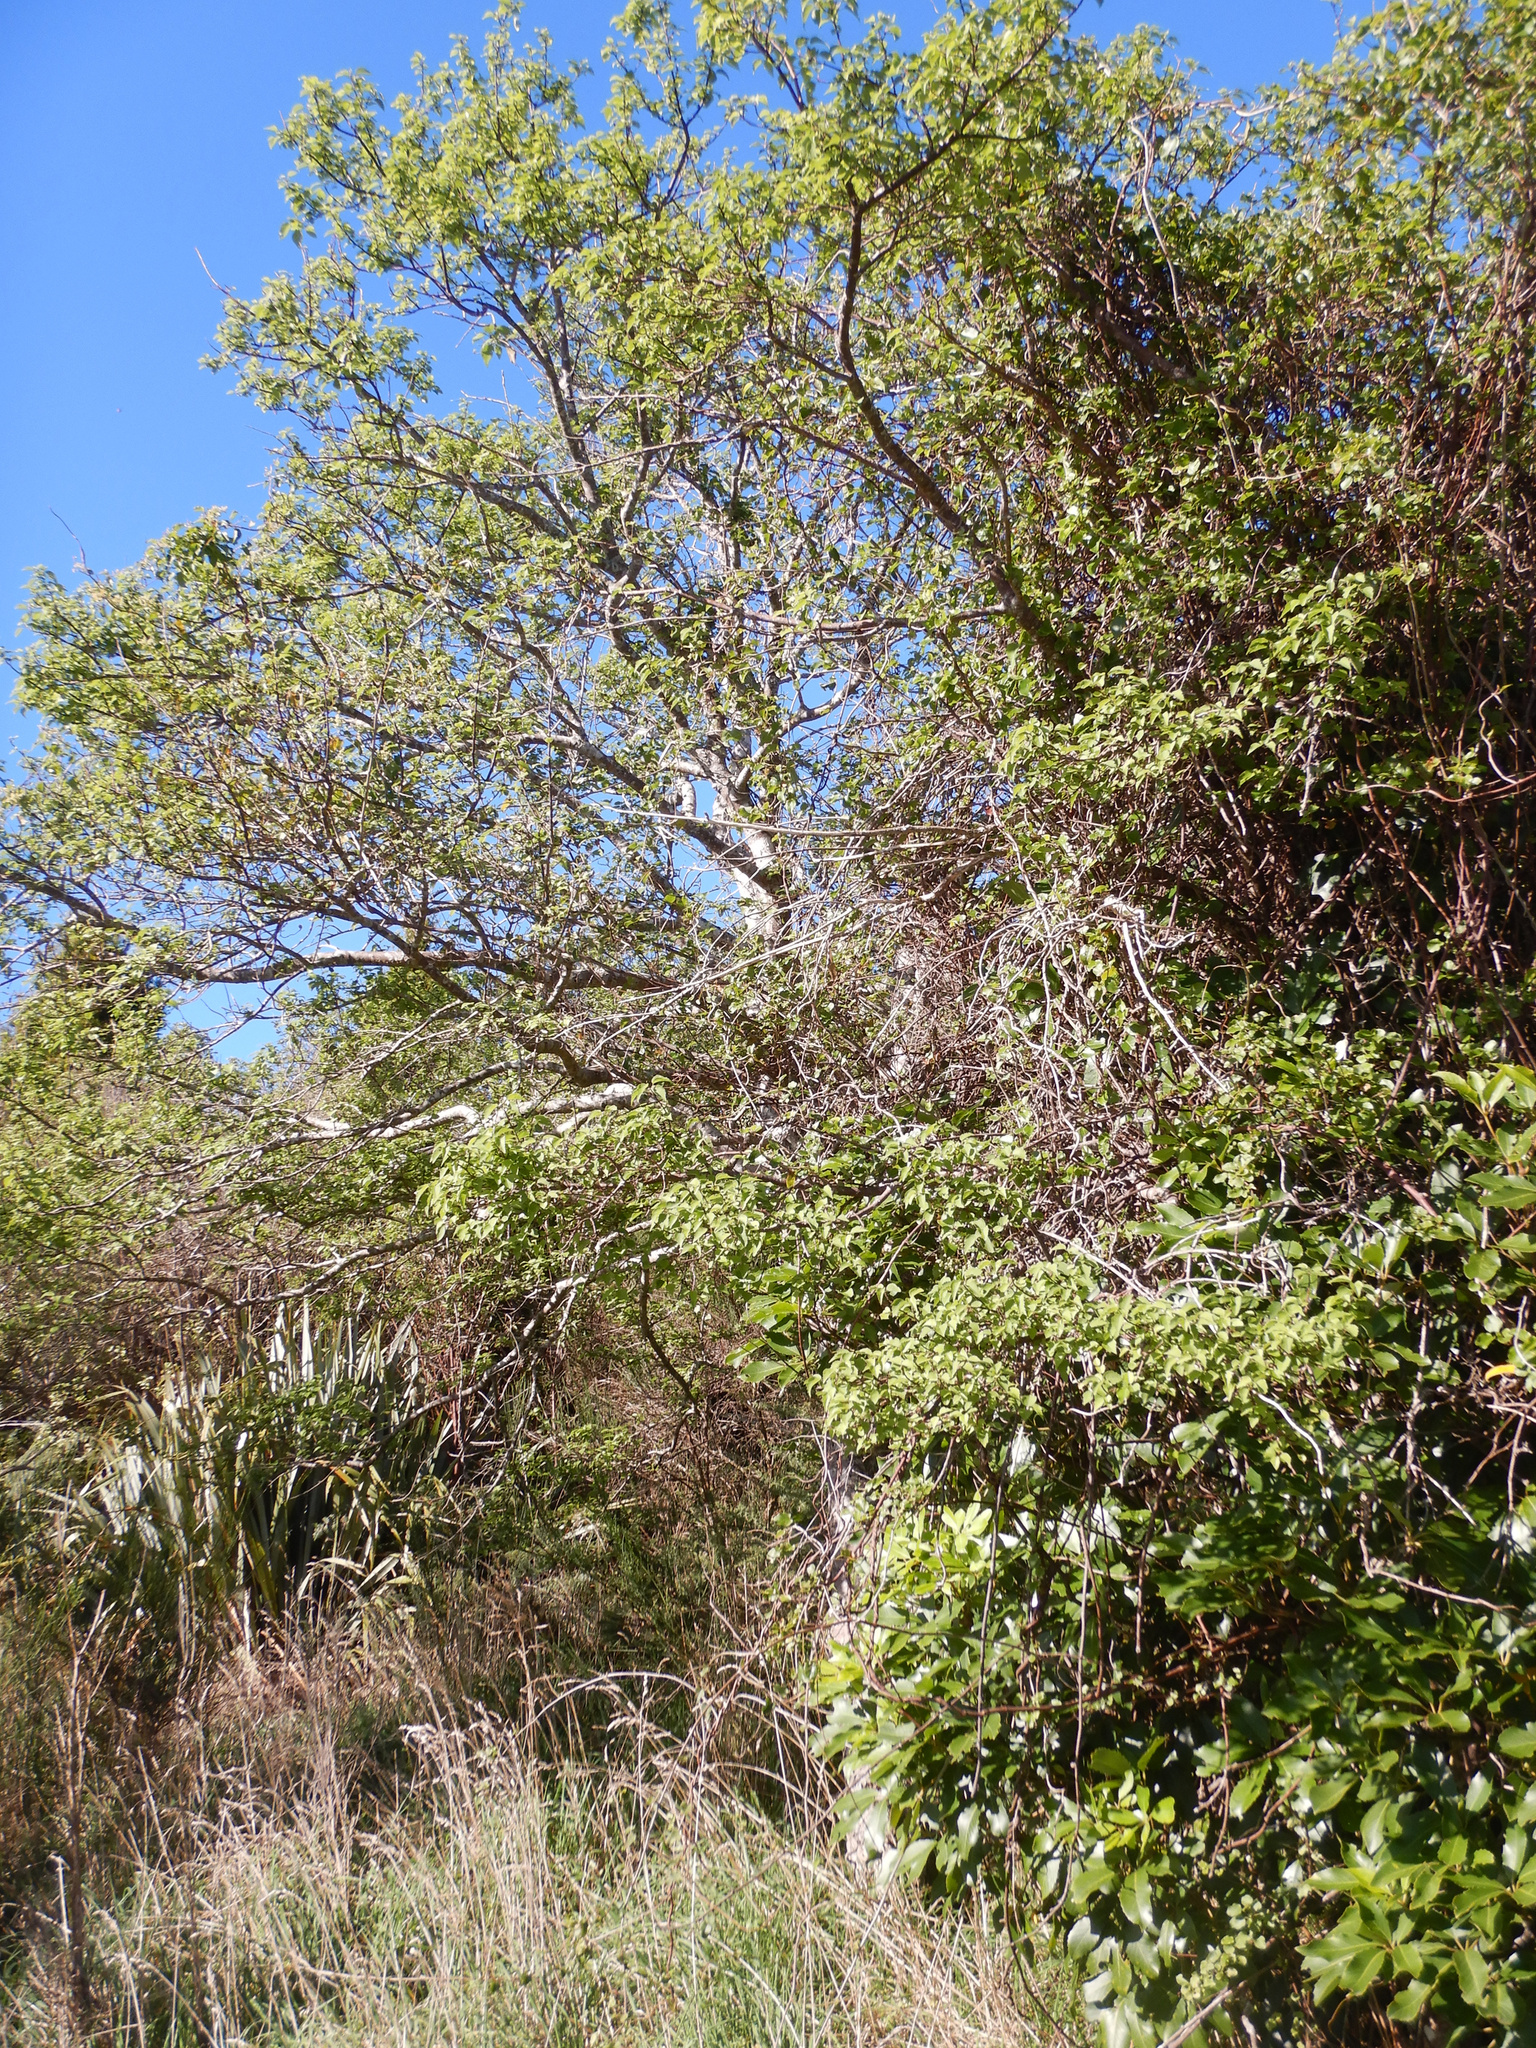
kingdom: Plantae
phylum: Tracheophyta
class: Magnoliopsida
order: Malvales
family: Malvaceae
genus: Plagianthus
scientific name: Plagianthus regius
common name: Manatu
